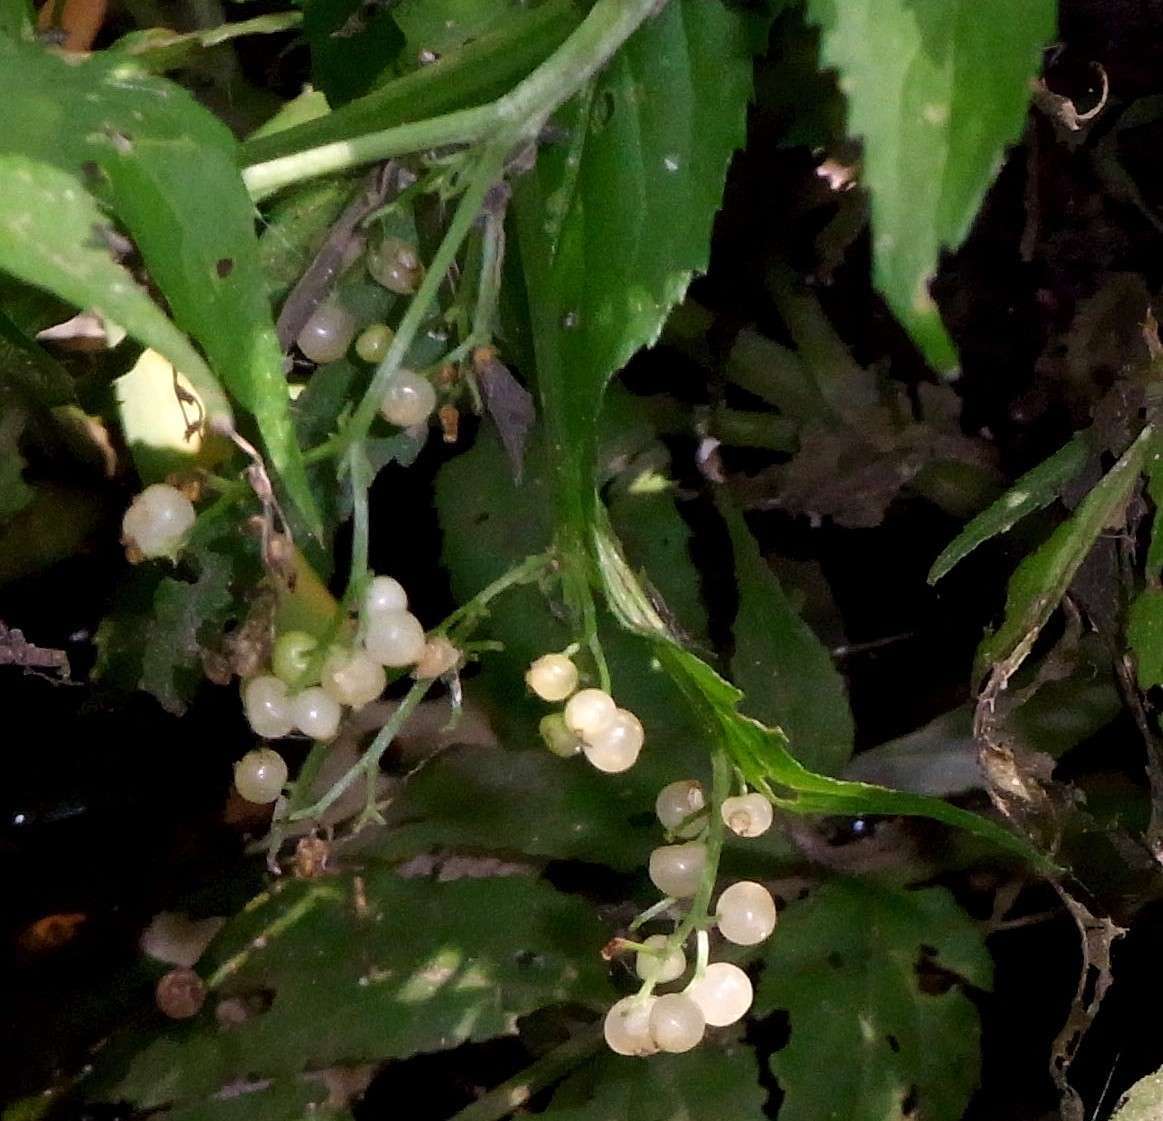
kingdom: Plantae
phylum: Tracheophyta
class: Magnoliopsida
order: Dipsacales
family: Viburnaceae
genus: Sambucus
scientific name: Sambucus gaudichaudiana
